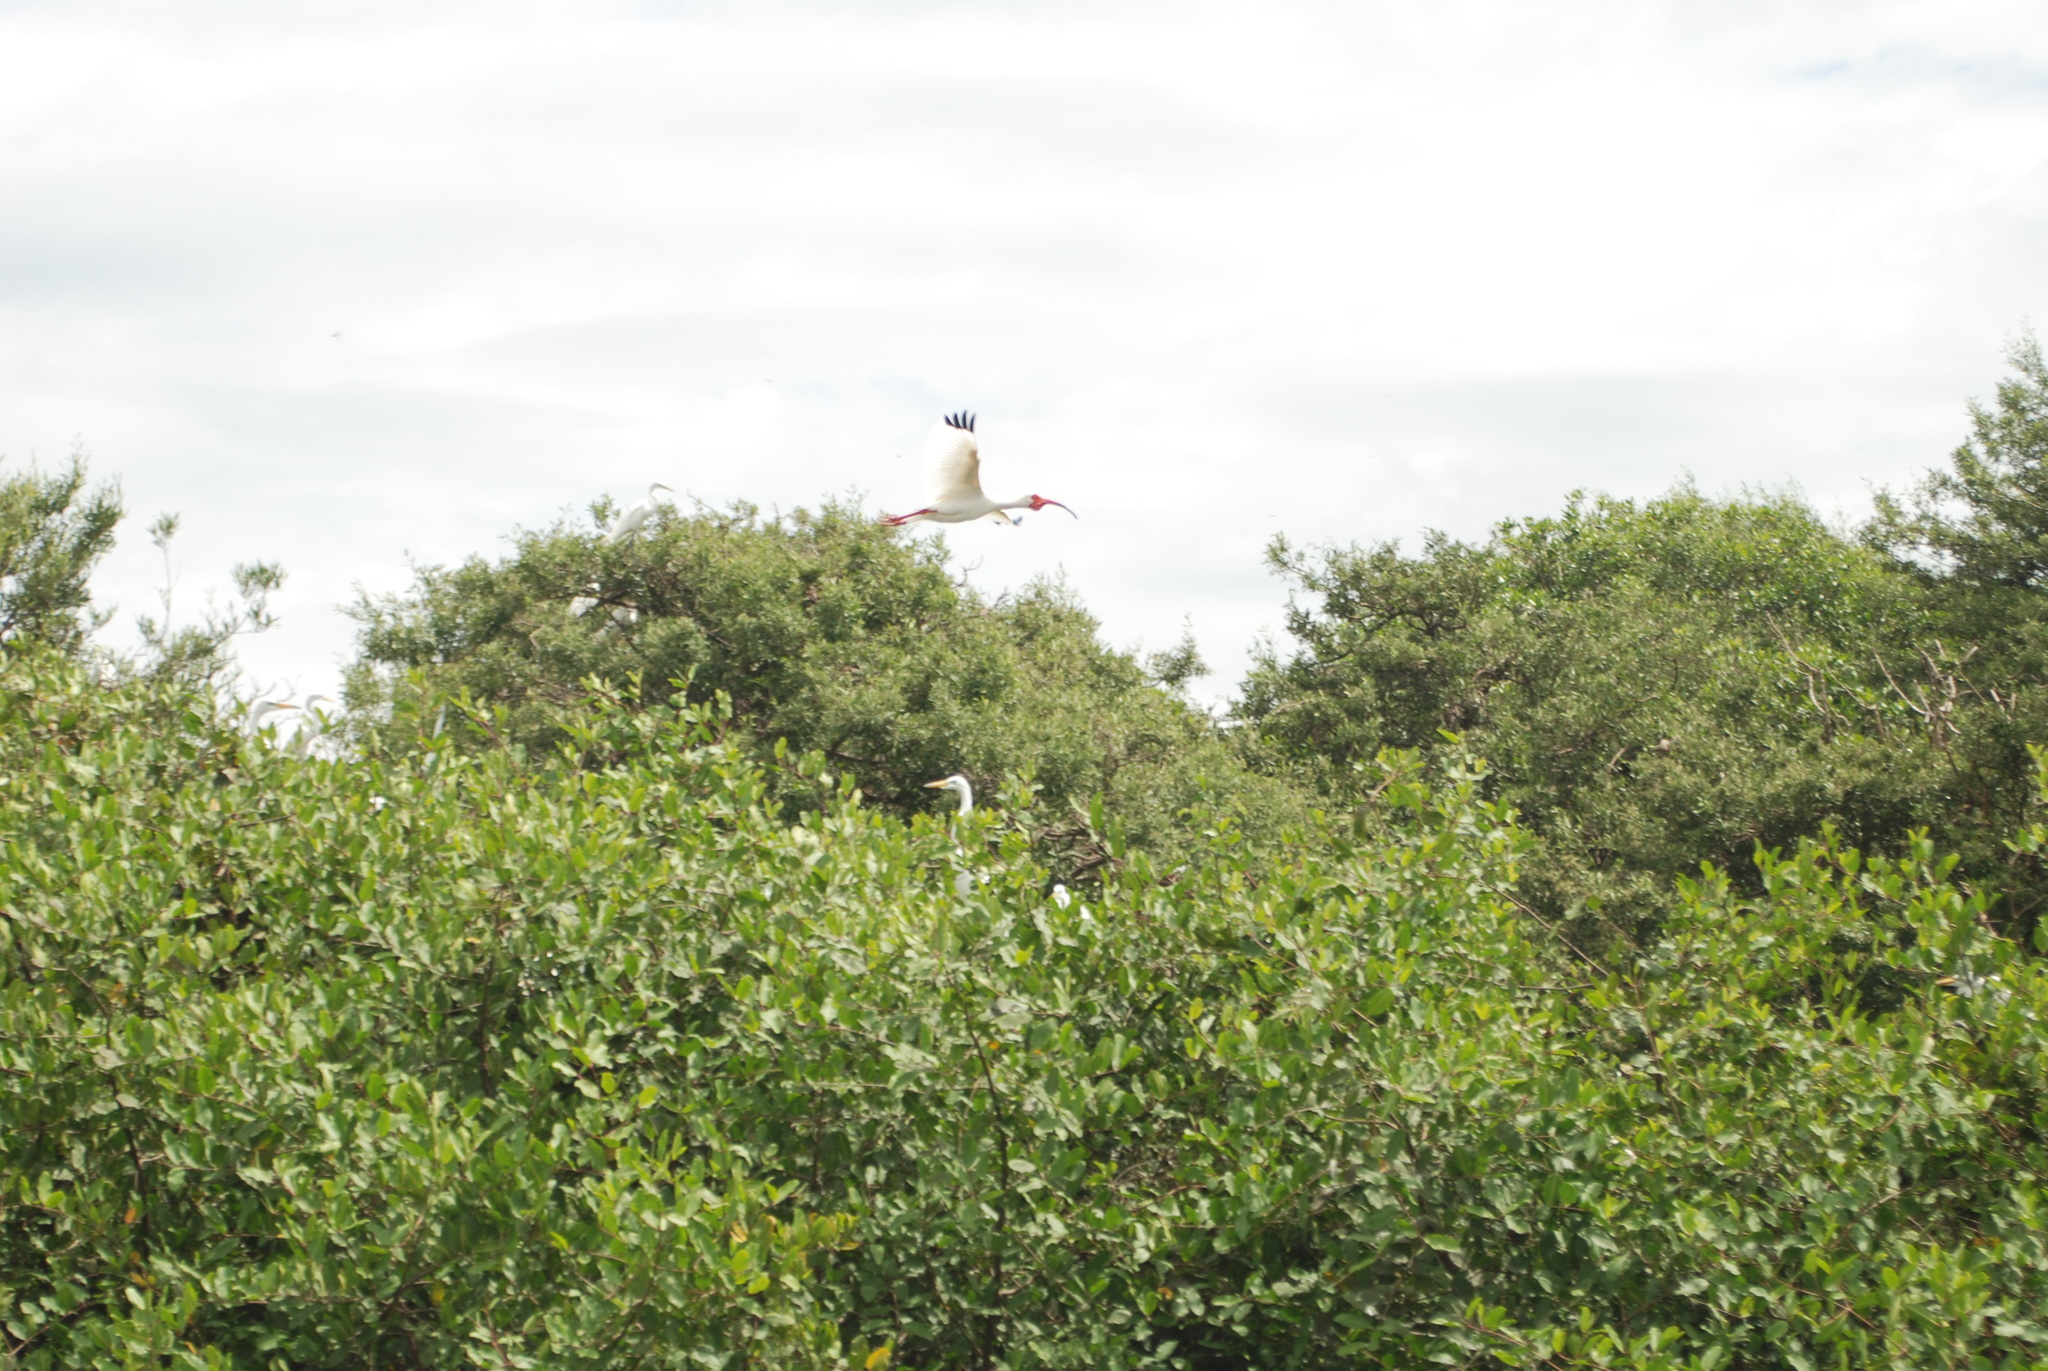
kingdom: Animalia
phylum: Chordata
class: Aves
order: Pelecaniformes
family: Threskiornithidae
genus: Eudocimus
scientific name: Eudocimus albus
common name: White ibis
